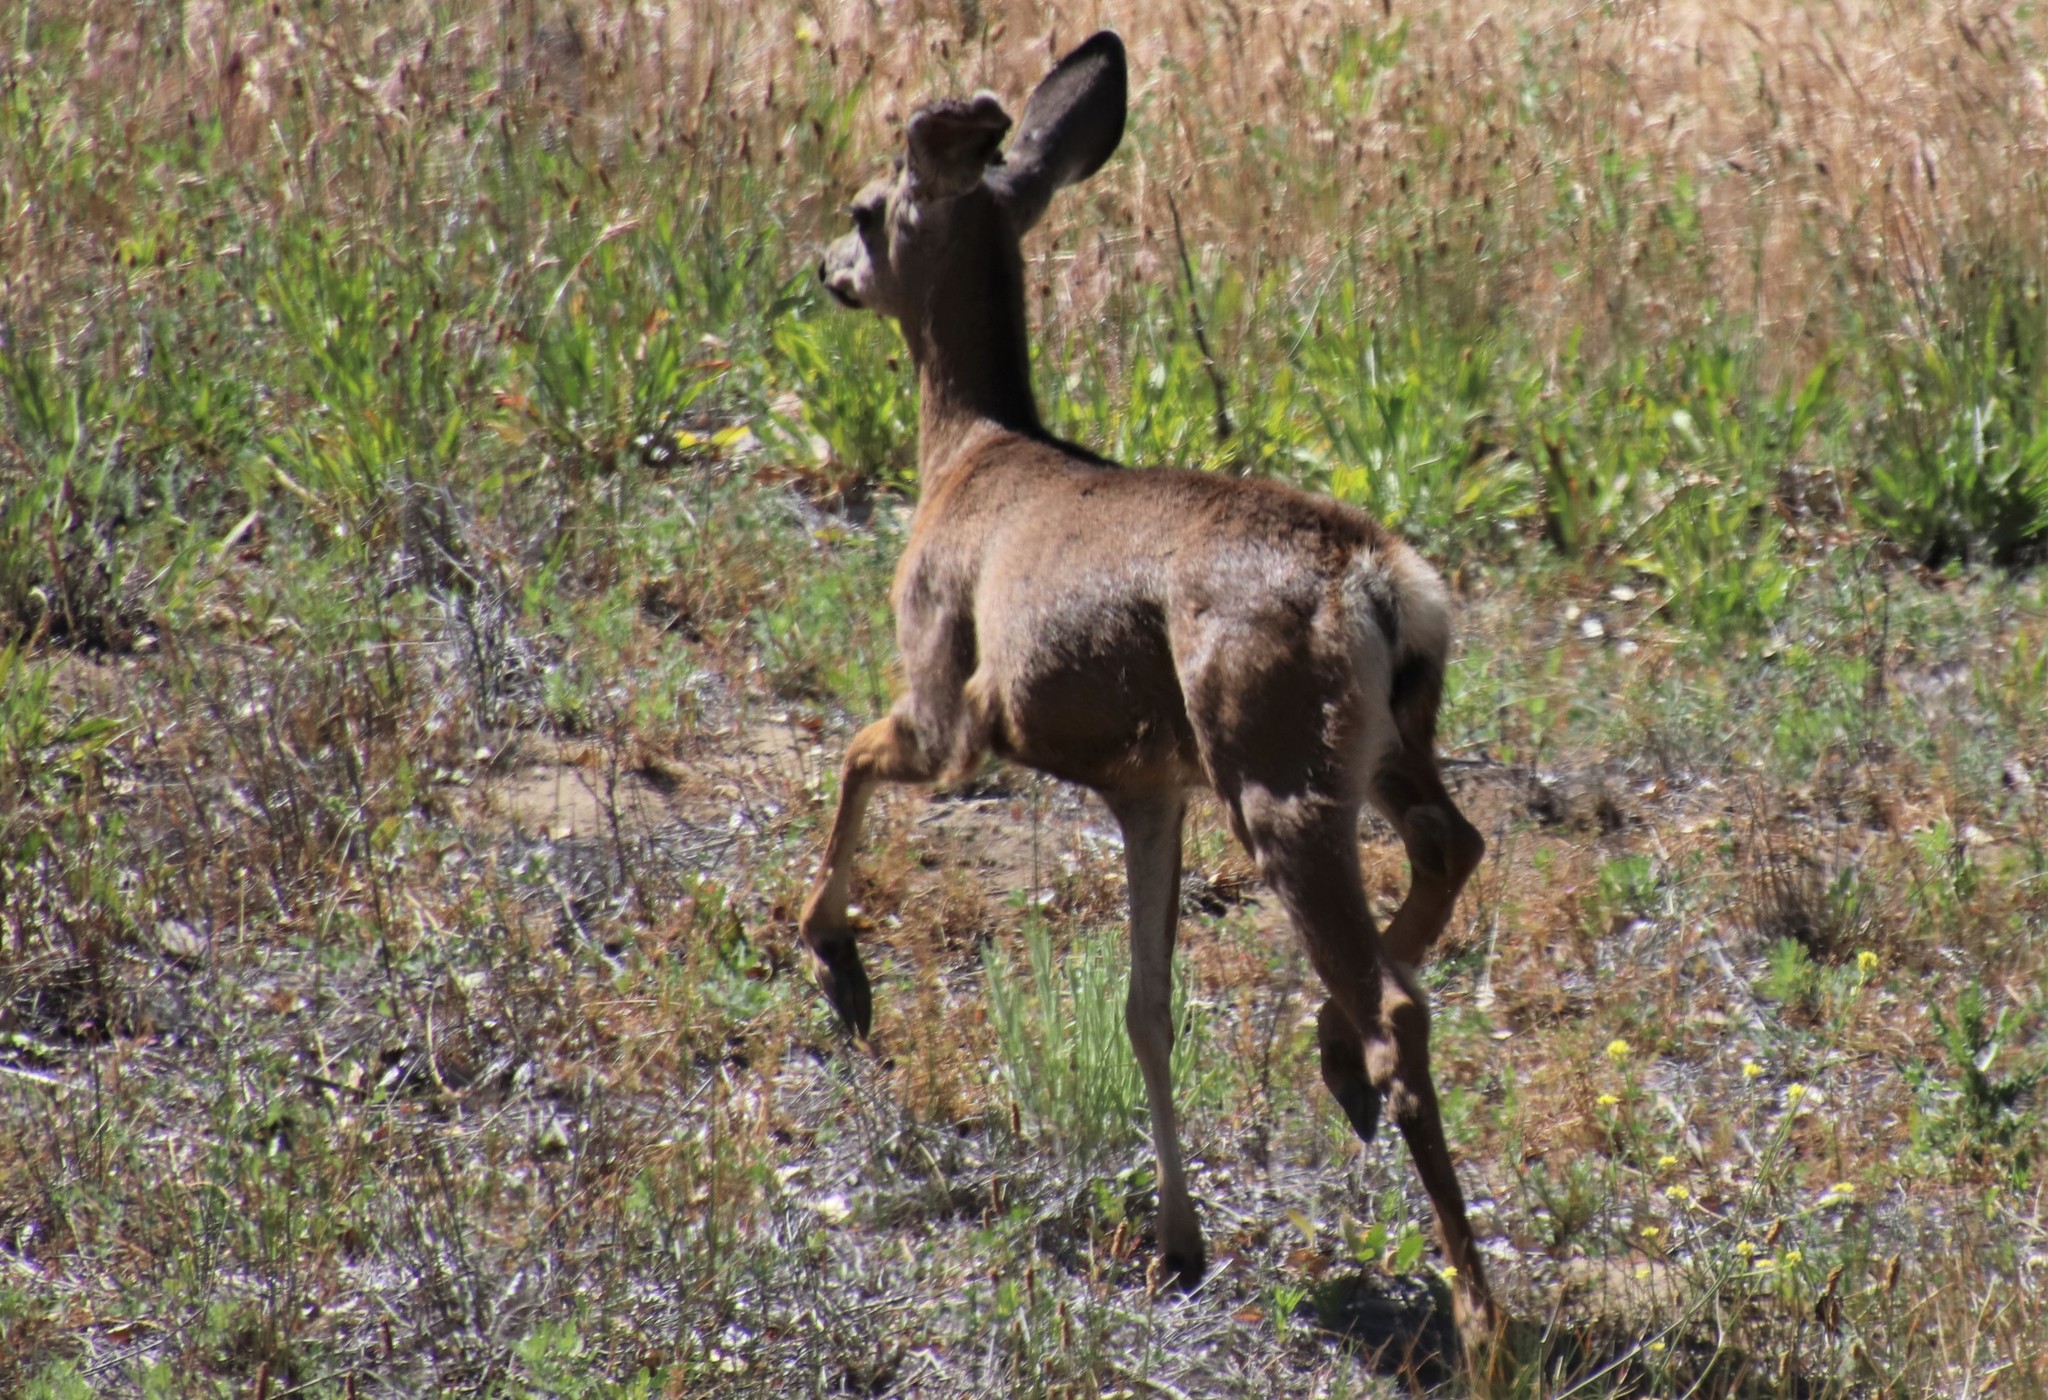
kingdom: Animalia
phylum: Chordata
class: Mammalia
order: Artiodactyla
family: Cervidae
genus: Odocoileus
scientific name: Odocoileus hemionus
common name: Mule deer
